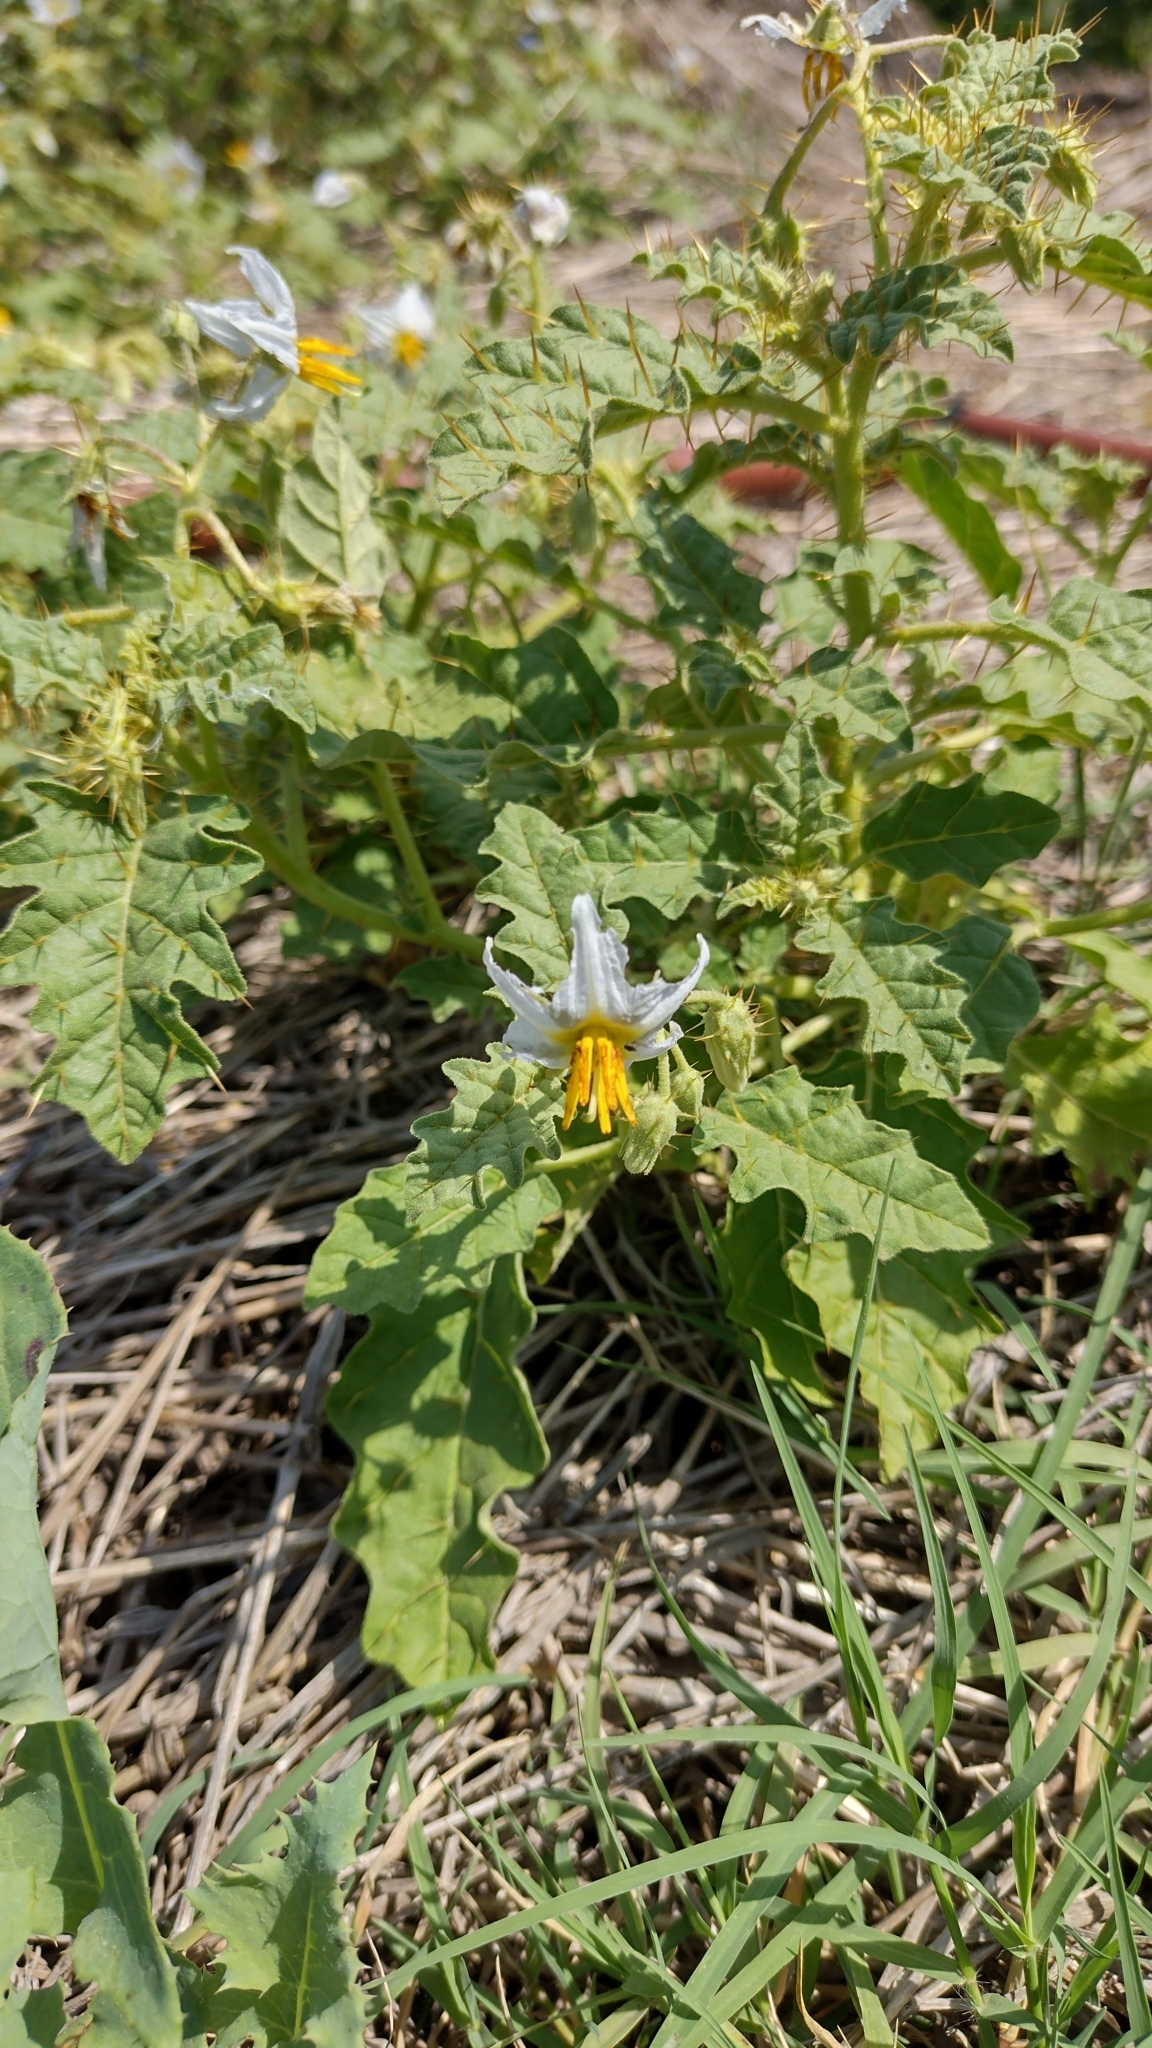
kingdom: Plantae
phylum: Tracheophyta
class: Magnoliopsida
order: Solanales
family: Solanaceae
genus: Solanum
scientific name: Solanum juvenale
